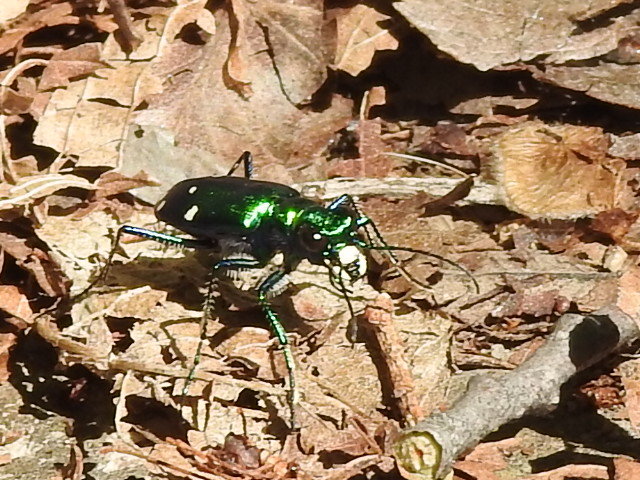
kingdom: Animalia
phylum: Arthropoda
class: Insecta
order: Coleoptera
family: Carabidae
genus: Cicindela
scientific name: Cicindela sexguttata
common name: Six-spotted tiger beetle
